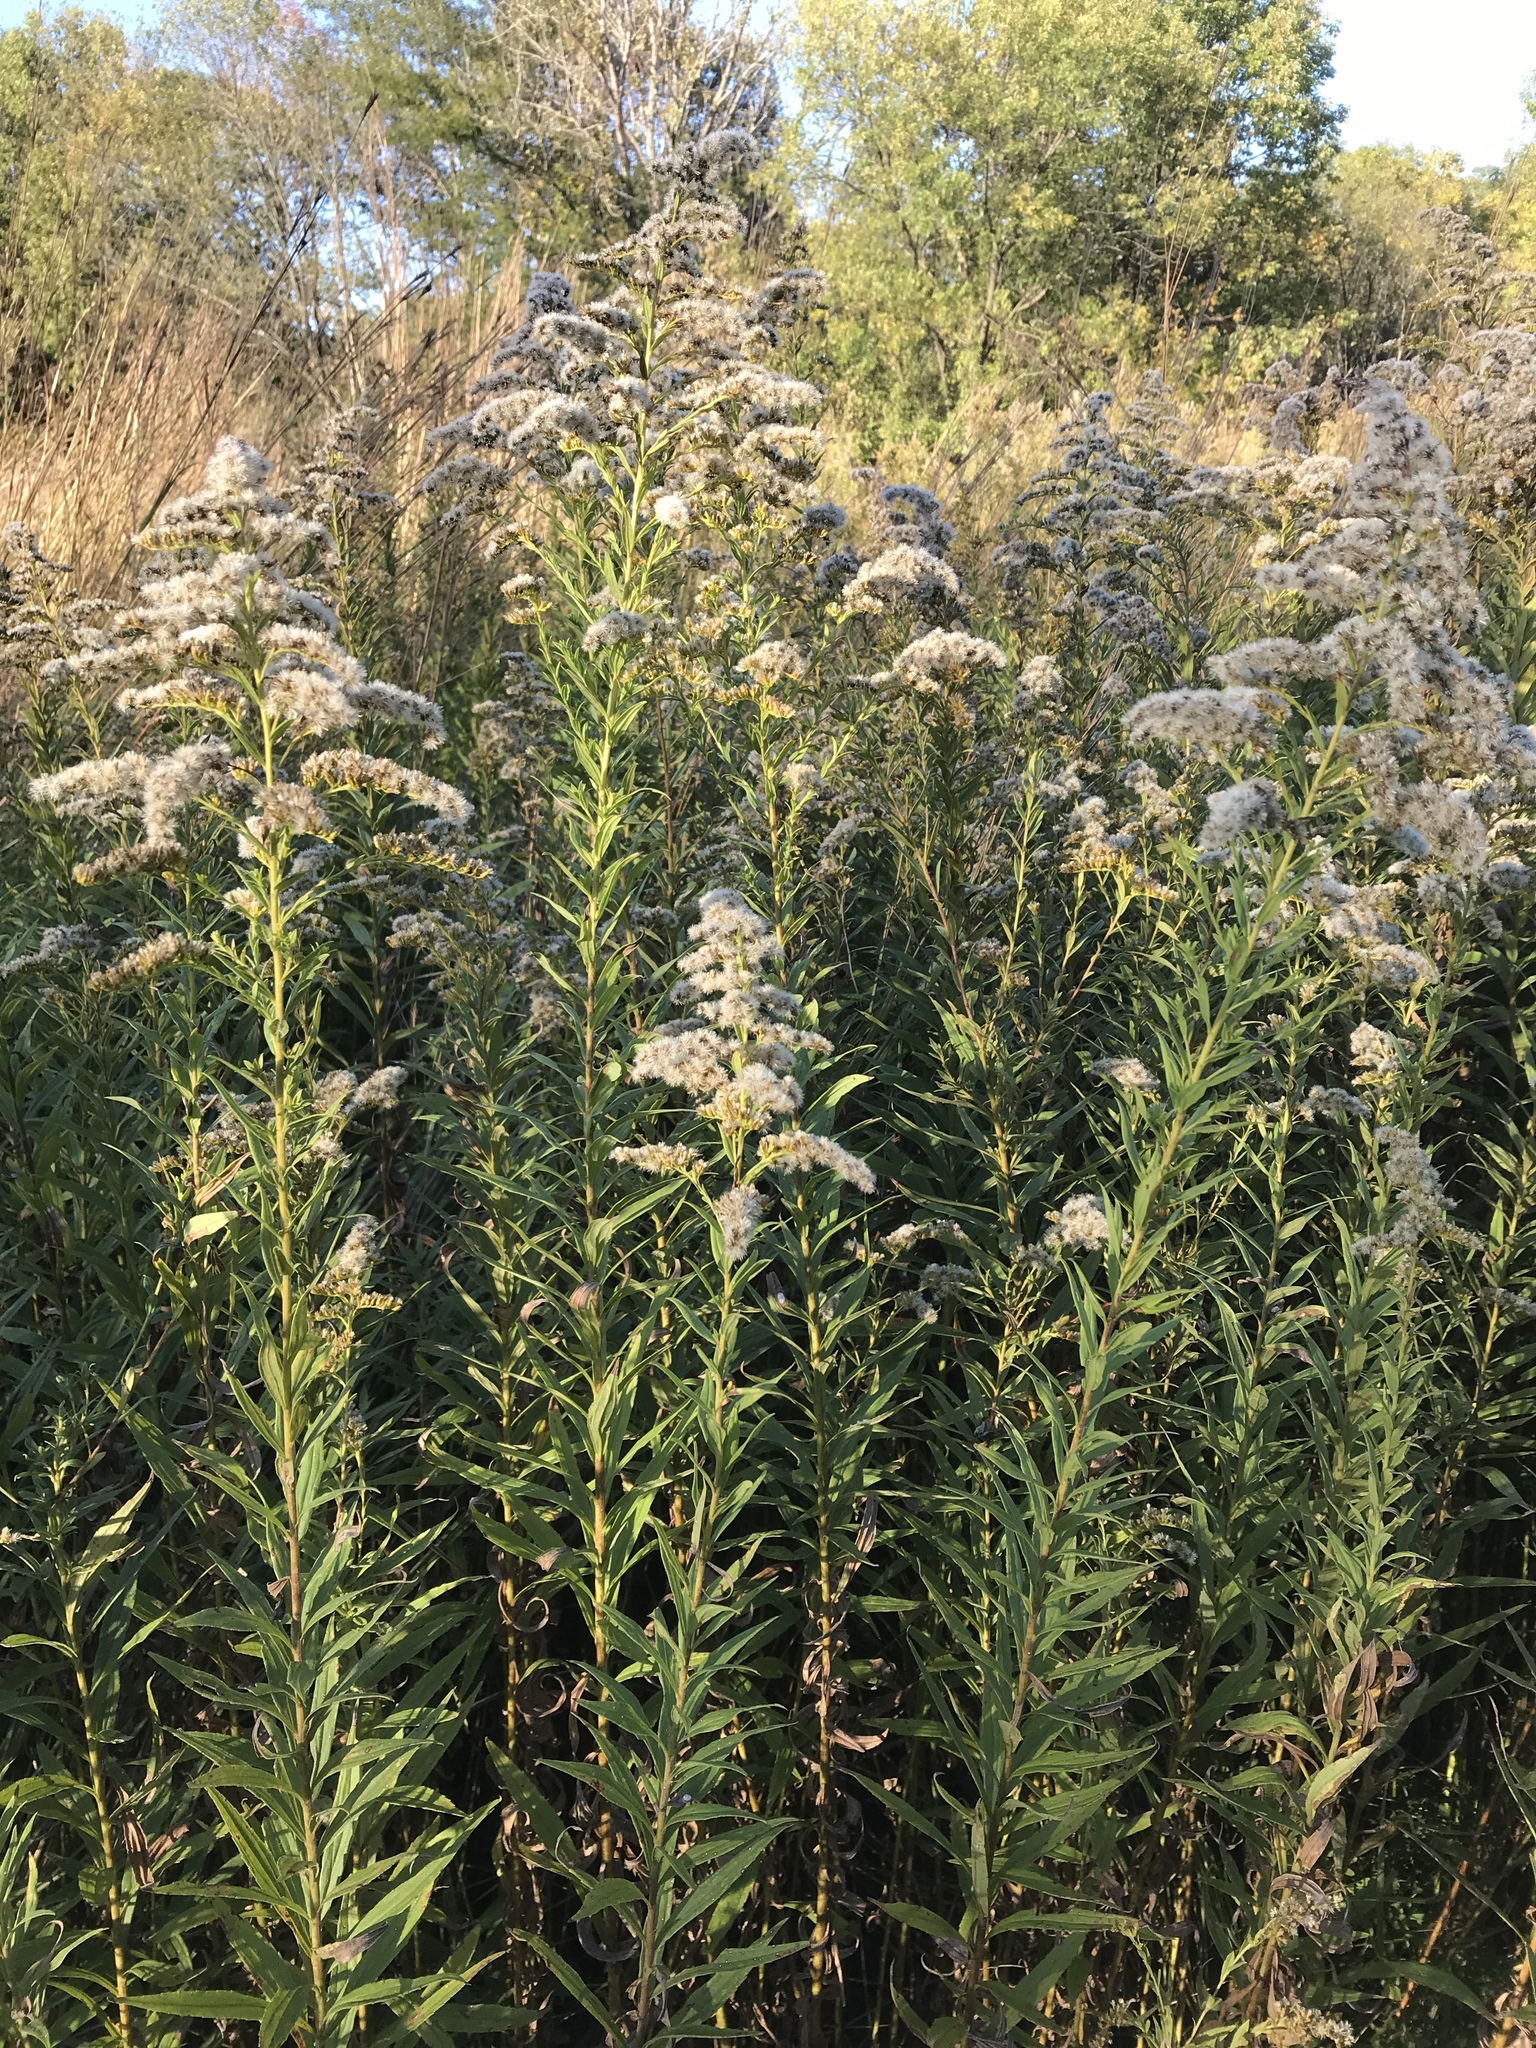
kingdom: Plantae
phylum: Tracheophyta
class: Magnoliopsida
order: Asterales
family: Asteraceae
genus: Solidago
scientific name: Solidago canadensis
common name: Canada goldenrod
